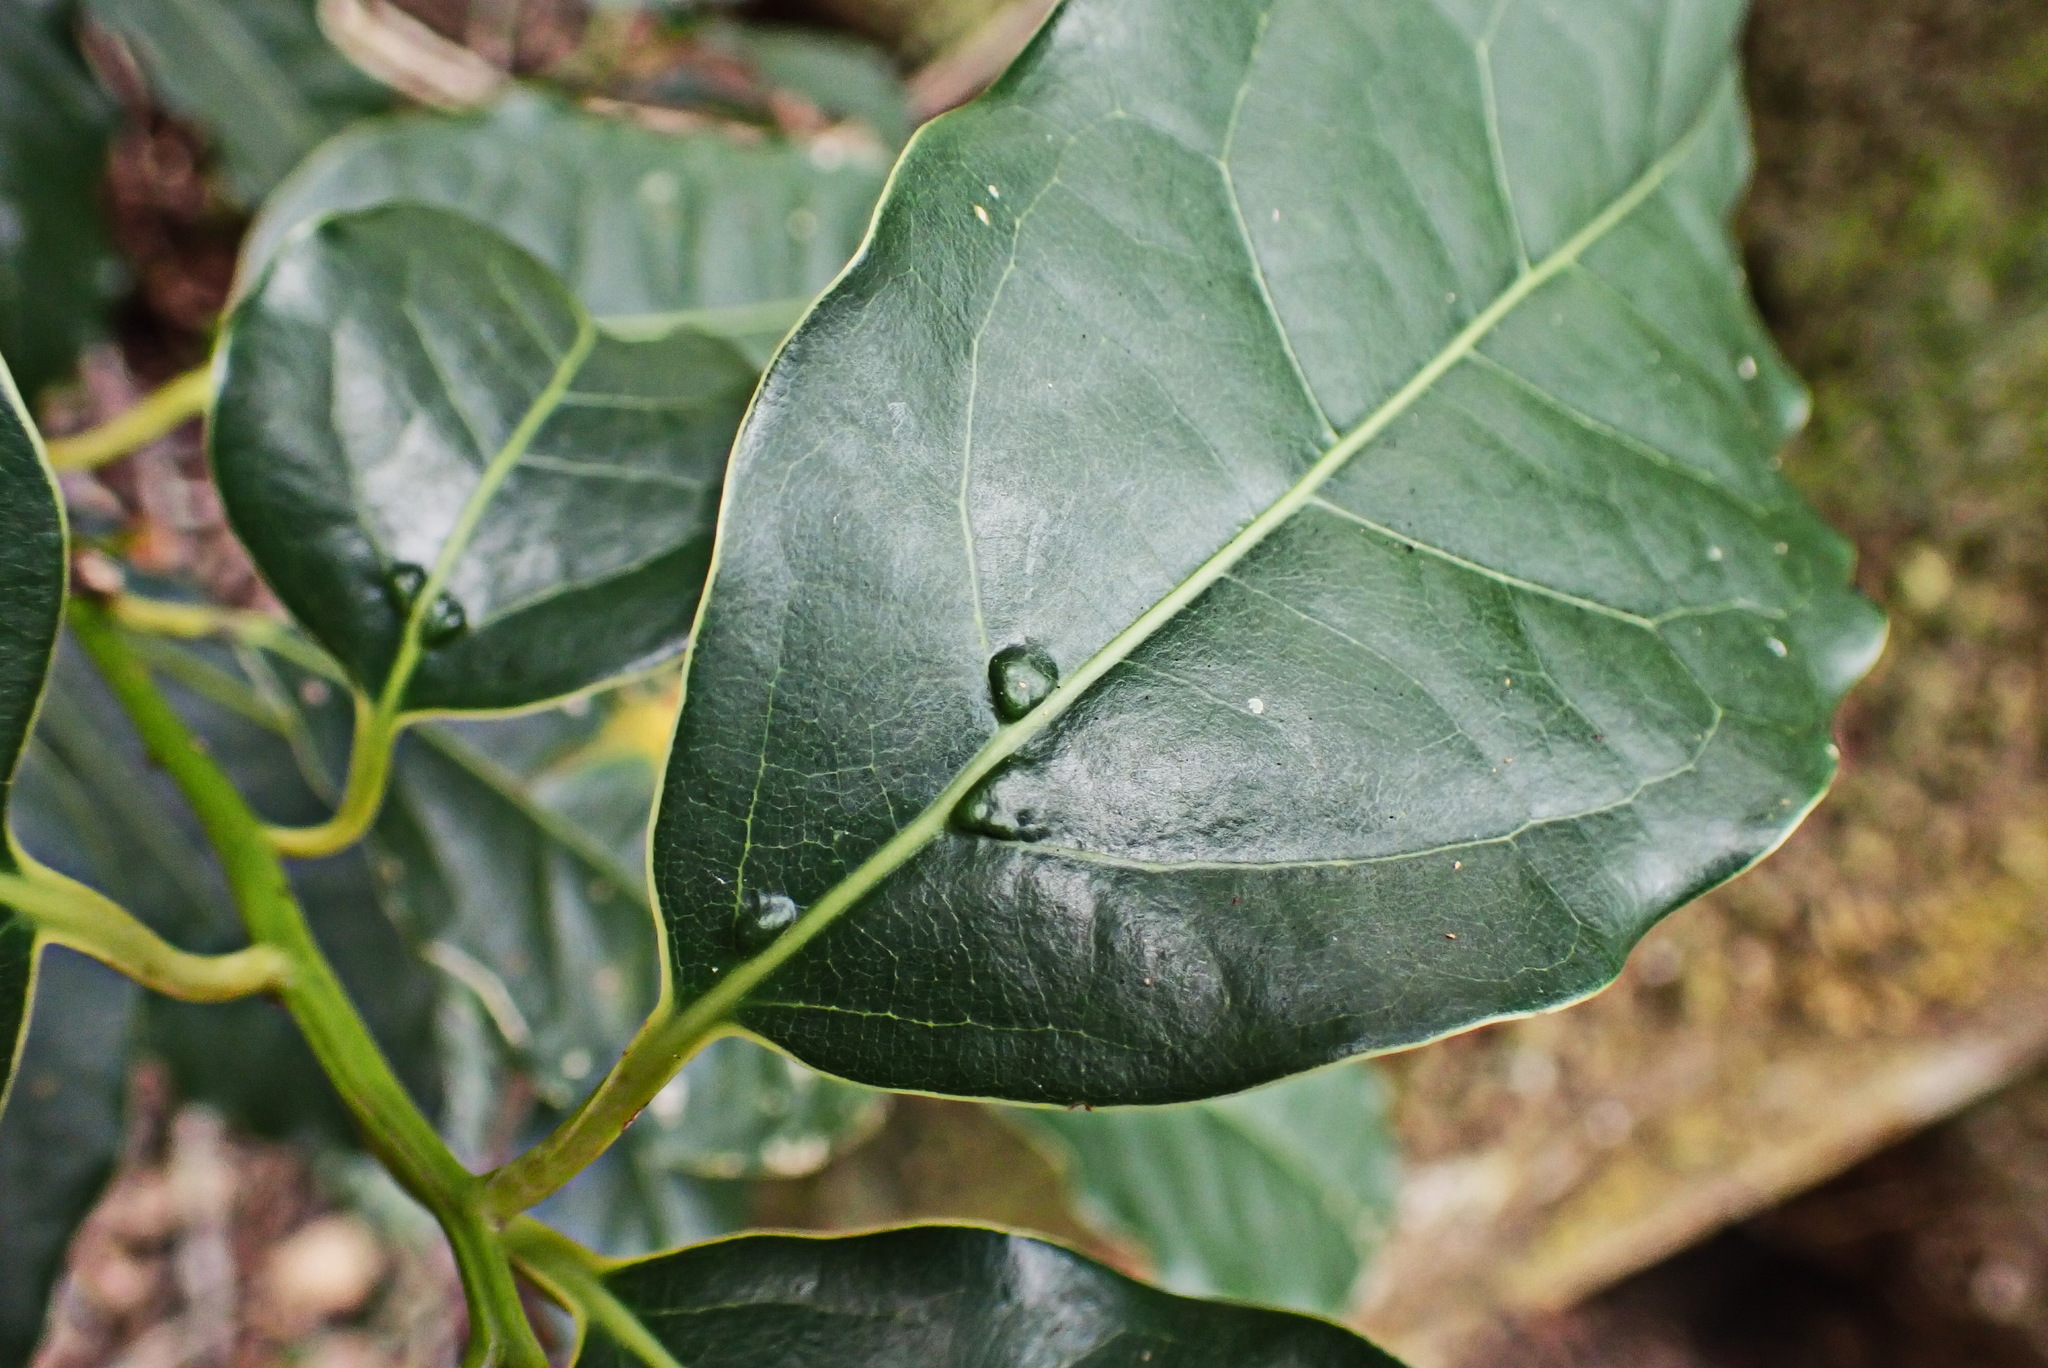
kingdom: Plantae
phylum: Tracheophyta
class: Magnoliopsida
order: Laurales
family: Lauraceae
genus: Ocotea
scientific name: Ocotea bullata
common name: Black stinkwood
